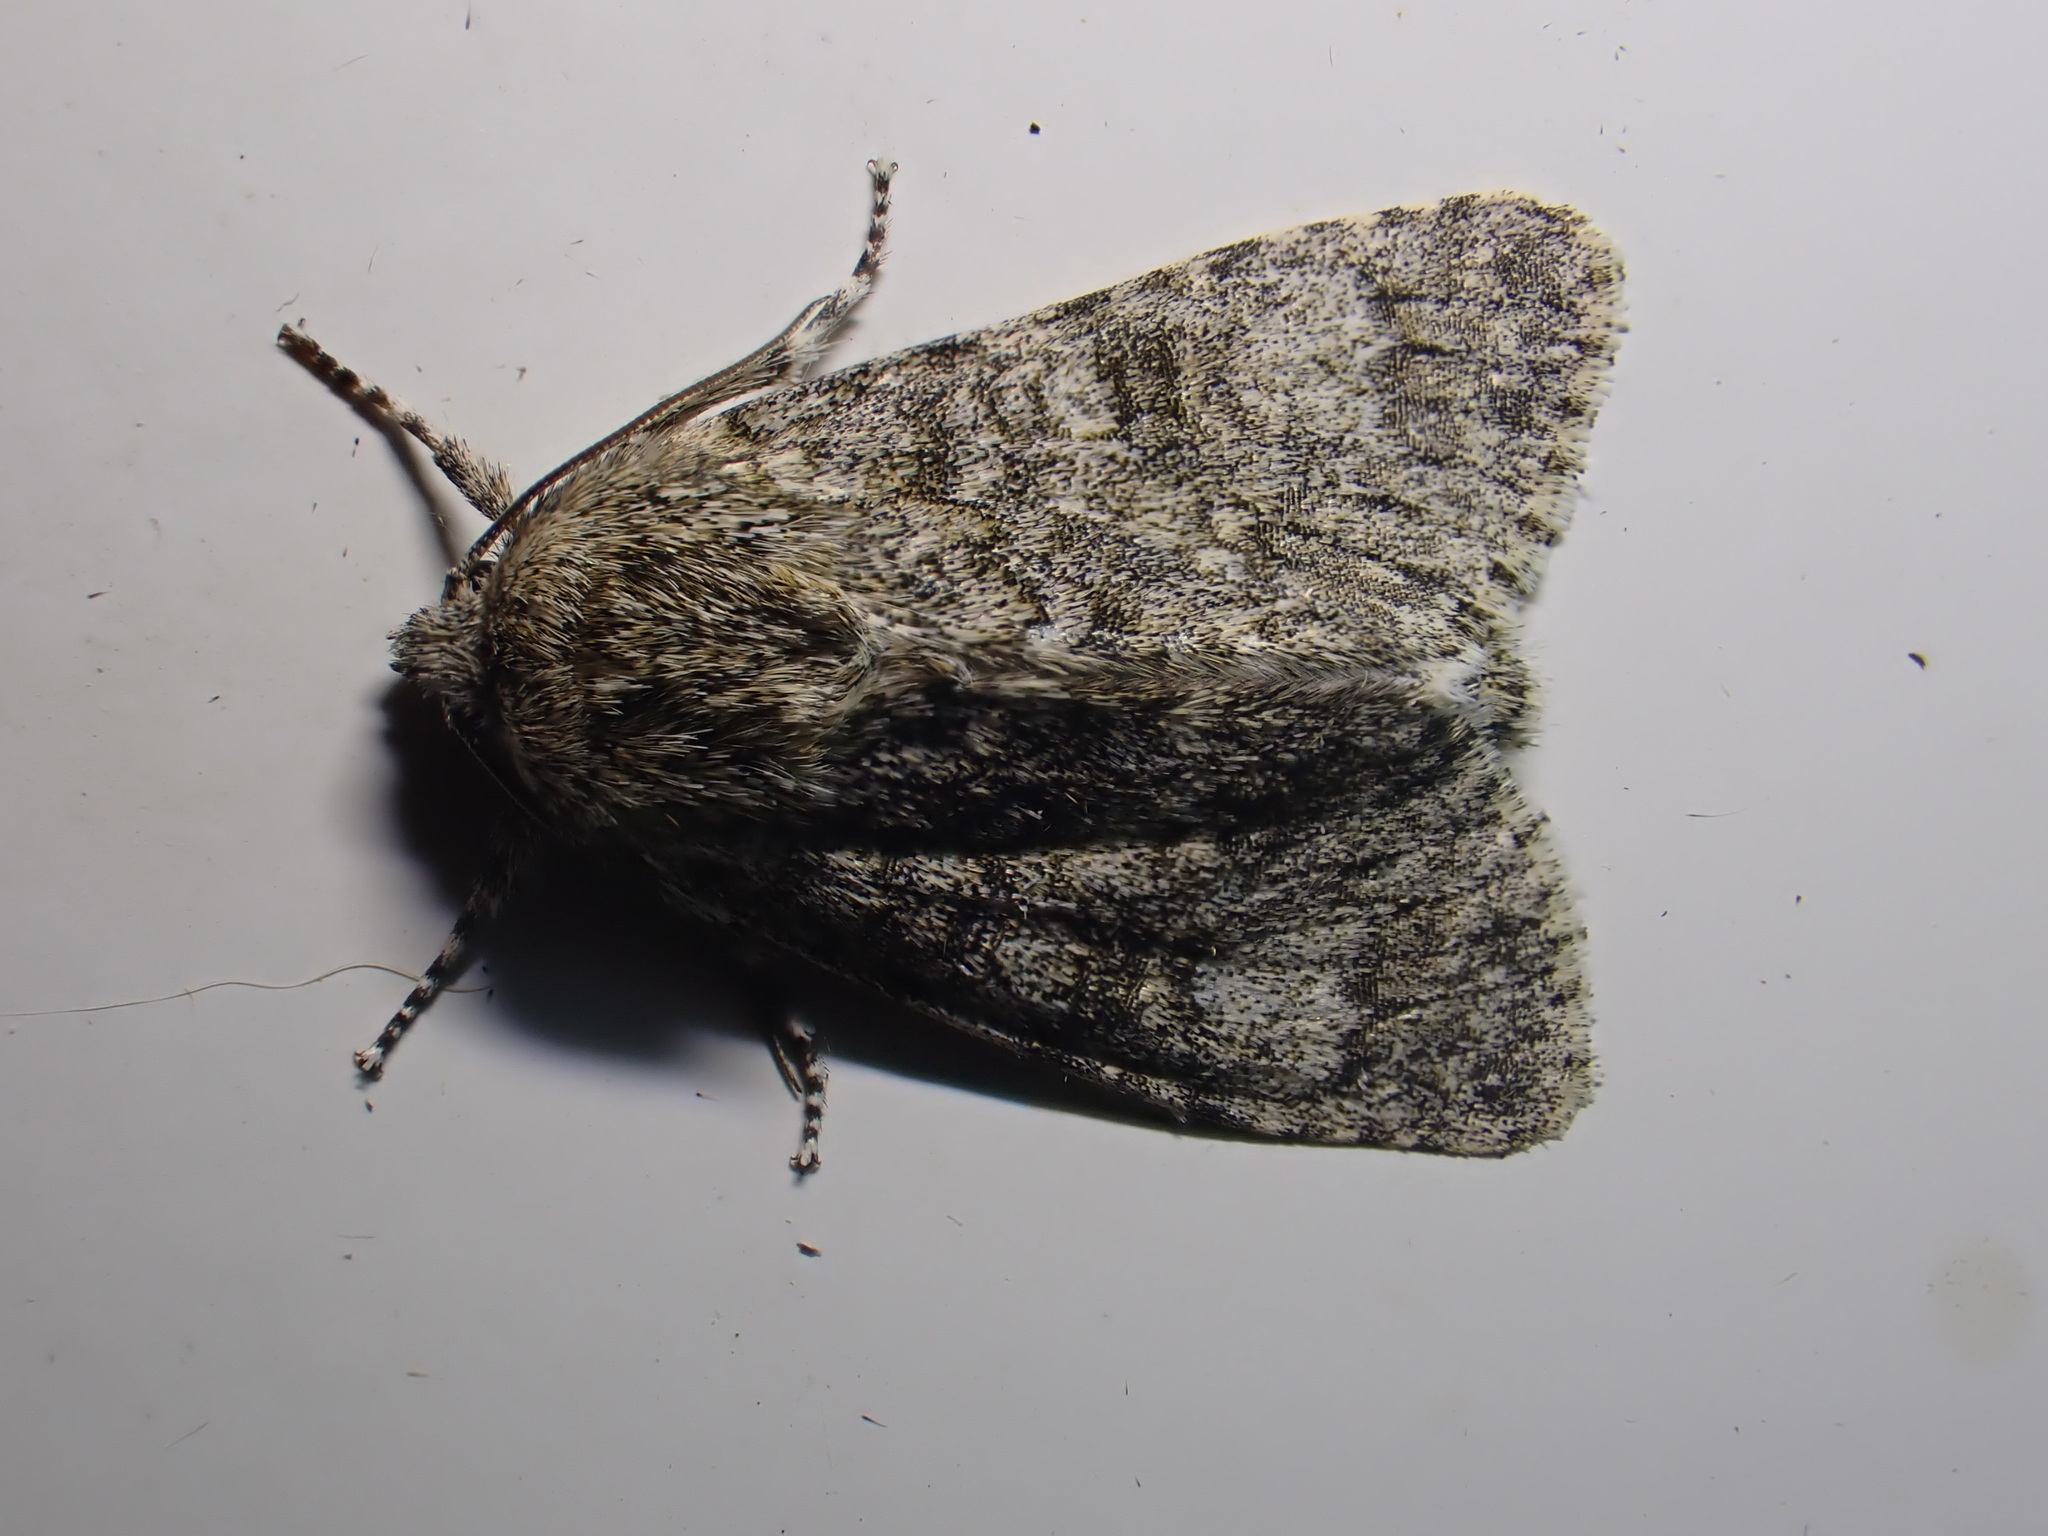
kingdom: Animalia
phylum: Arthropoda
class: Insecta
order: Lepidoptera
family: Noctuidae
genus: Acronicta
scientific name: Acronicta megacephala
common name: Poplar grey
